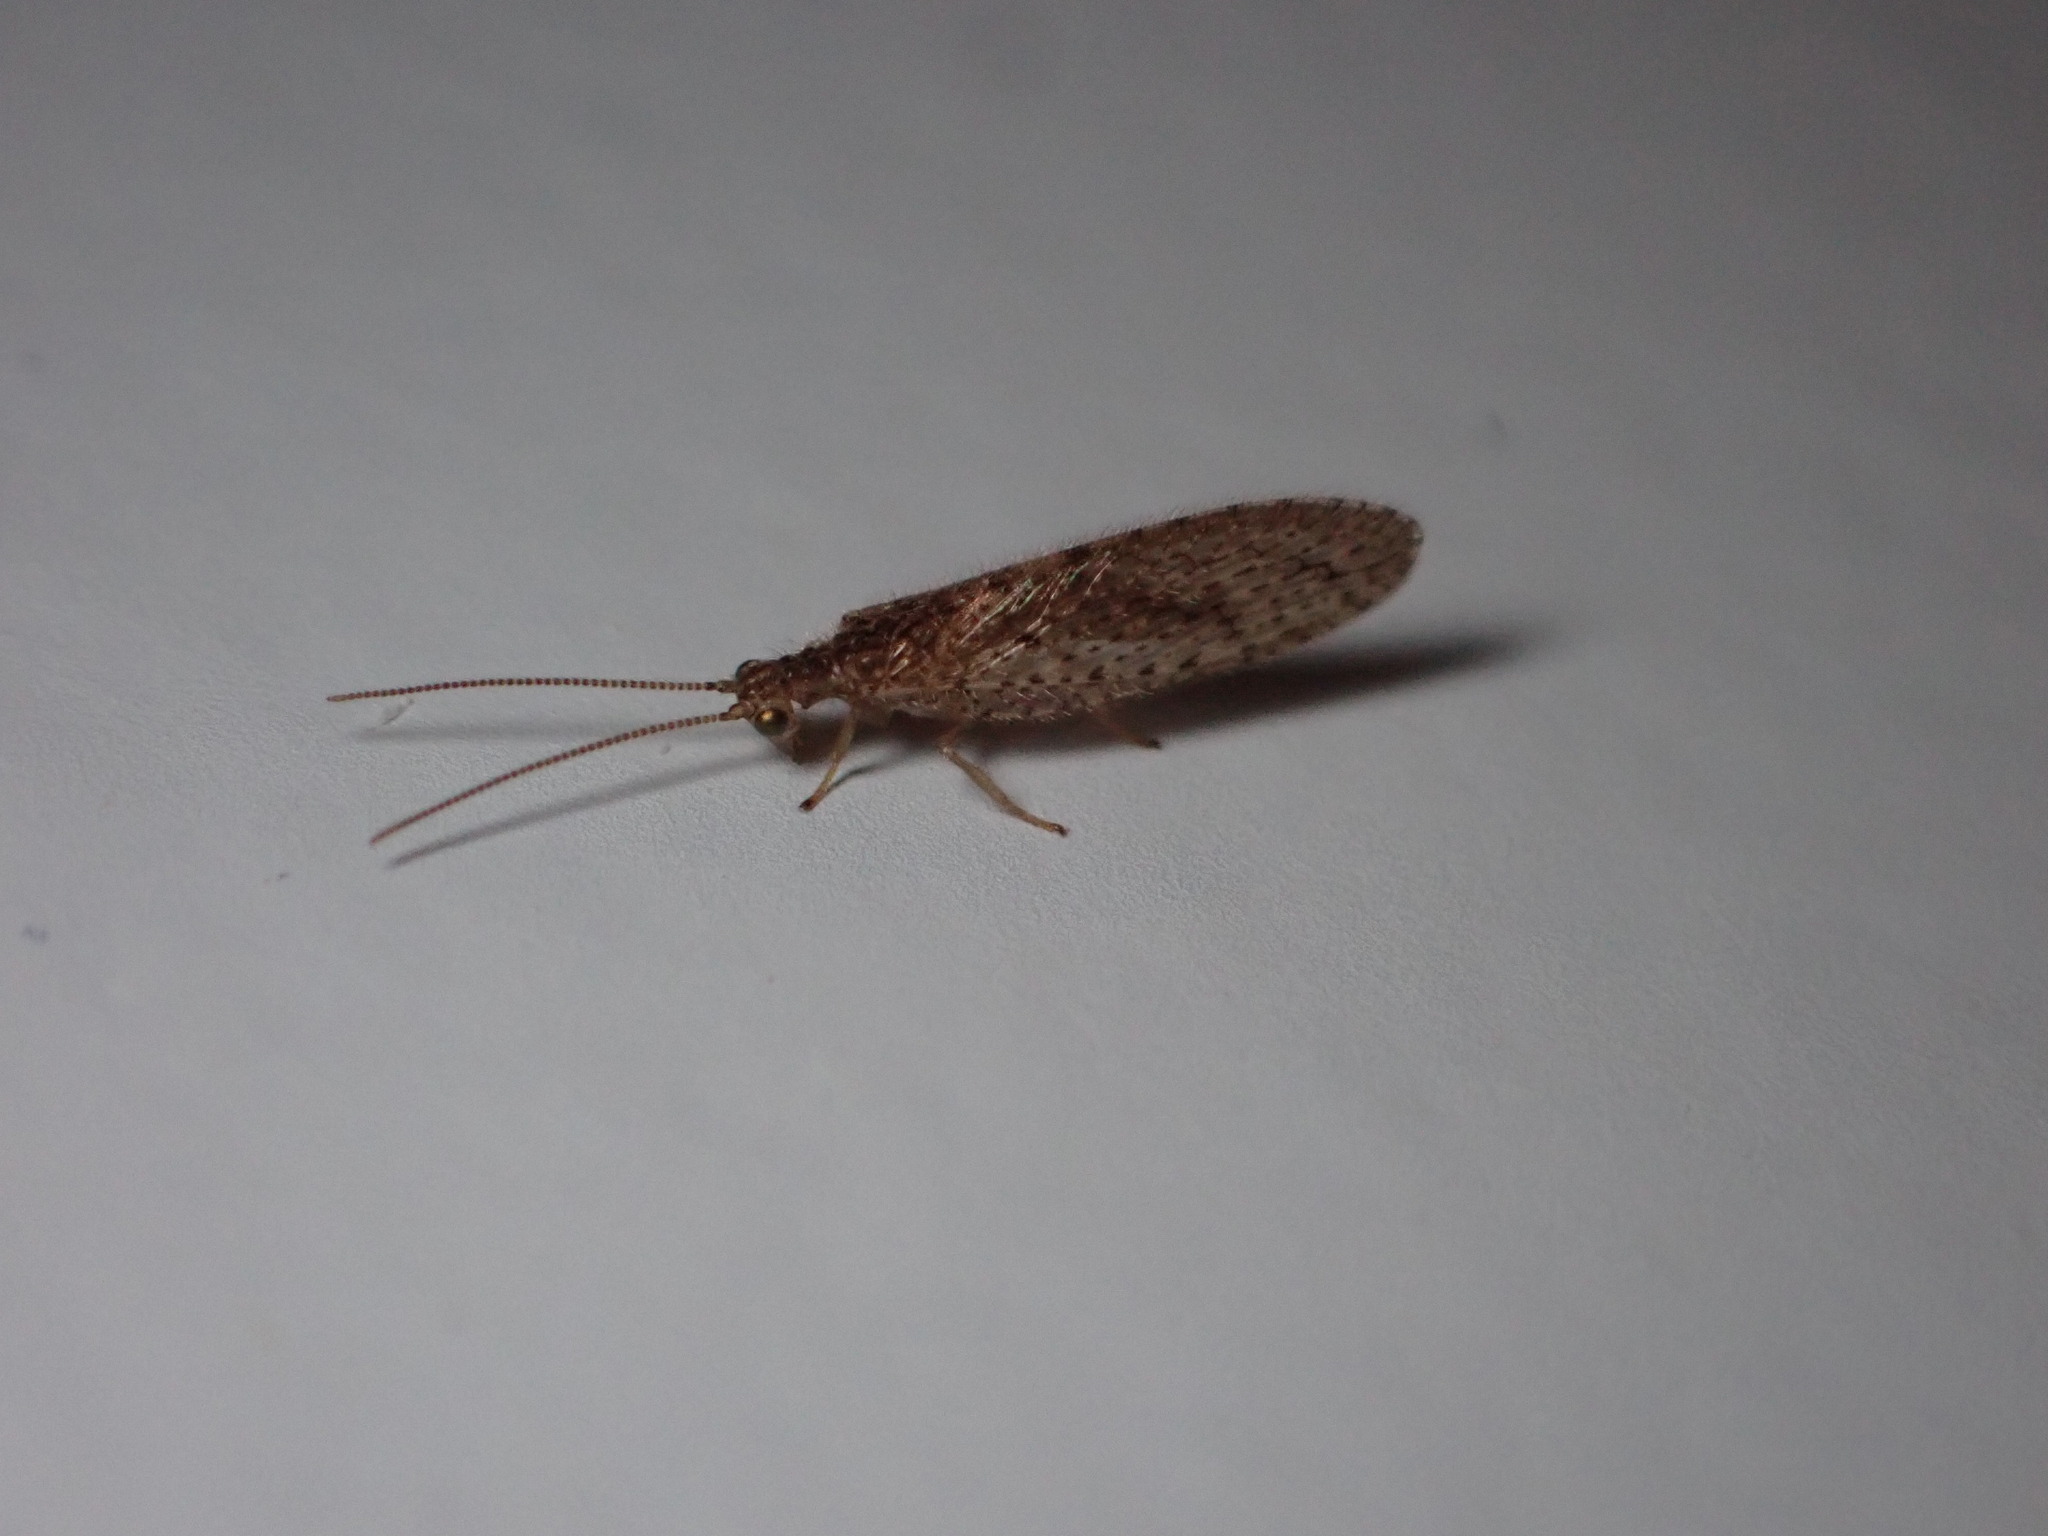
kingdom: Animalia
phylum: Arthropoda
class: Insecta
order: Neuroptera
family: Hemerobiidae
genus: Micromus
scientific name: Micromus tasmaniae
